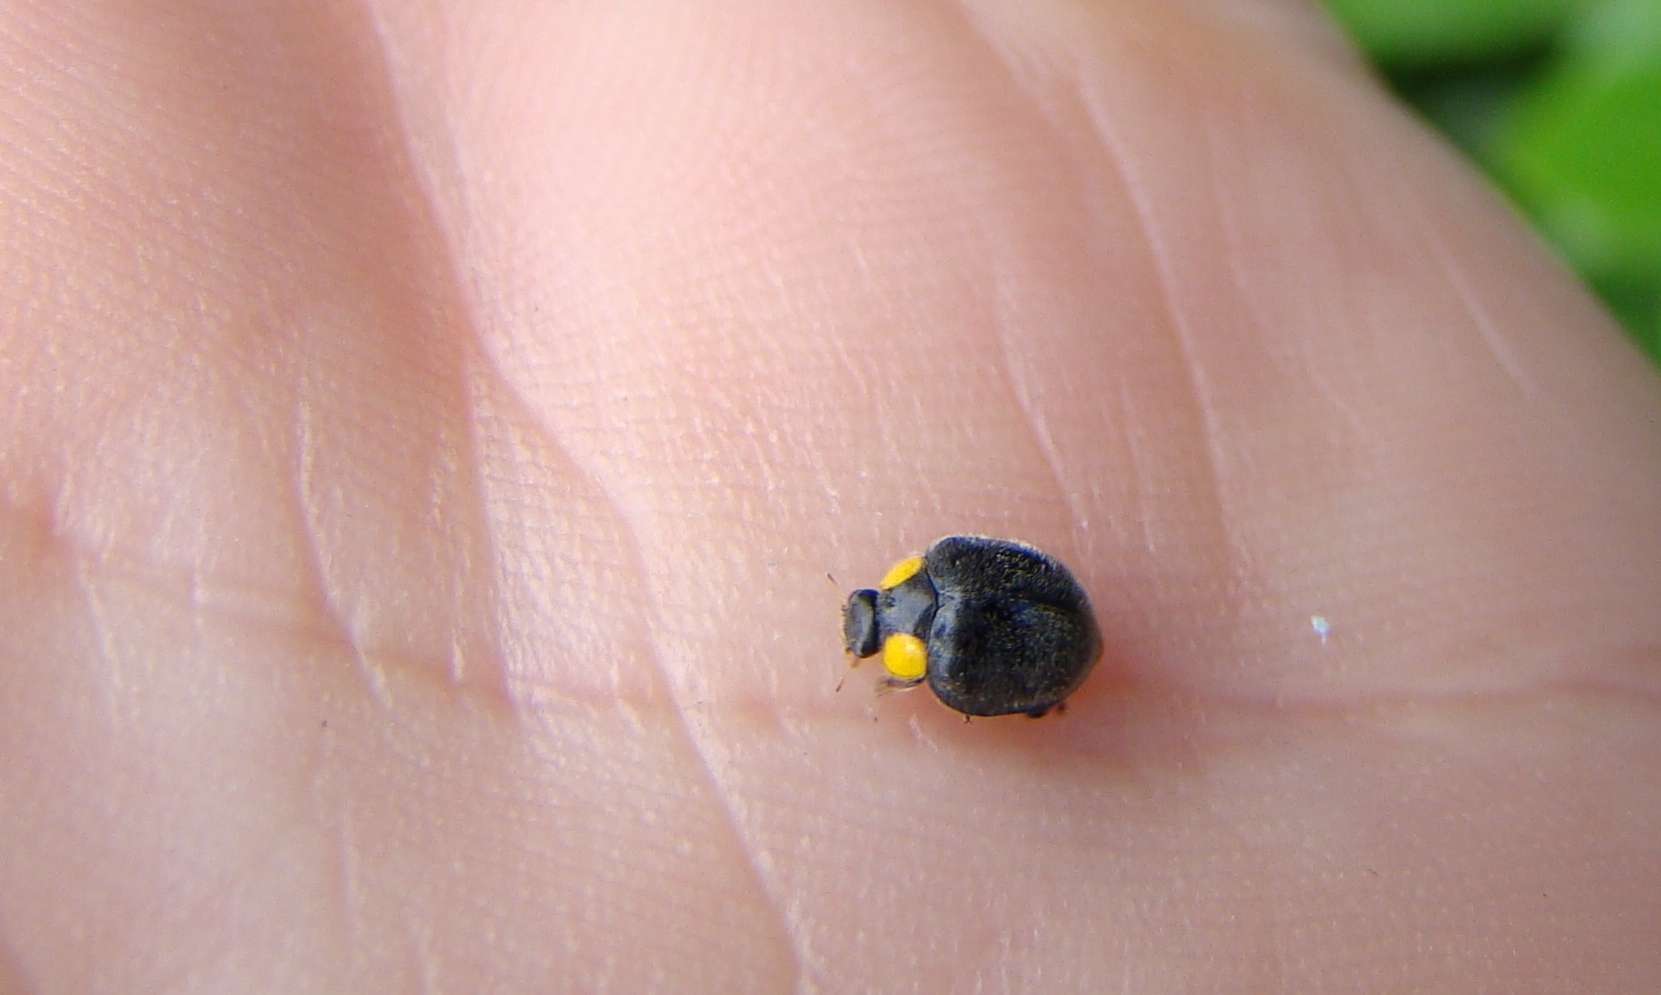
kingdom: Animalia
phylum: Arthropoda
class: Insecta
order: Coleoptera
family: Coccinellidae
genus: Scymnodes
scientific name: Scymnodes lividigaster
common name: Yellowshouldered lady beetle
